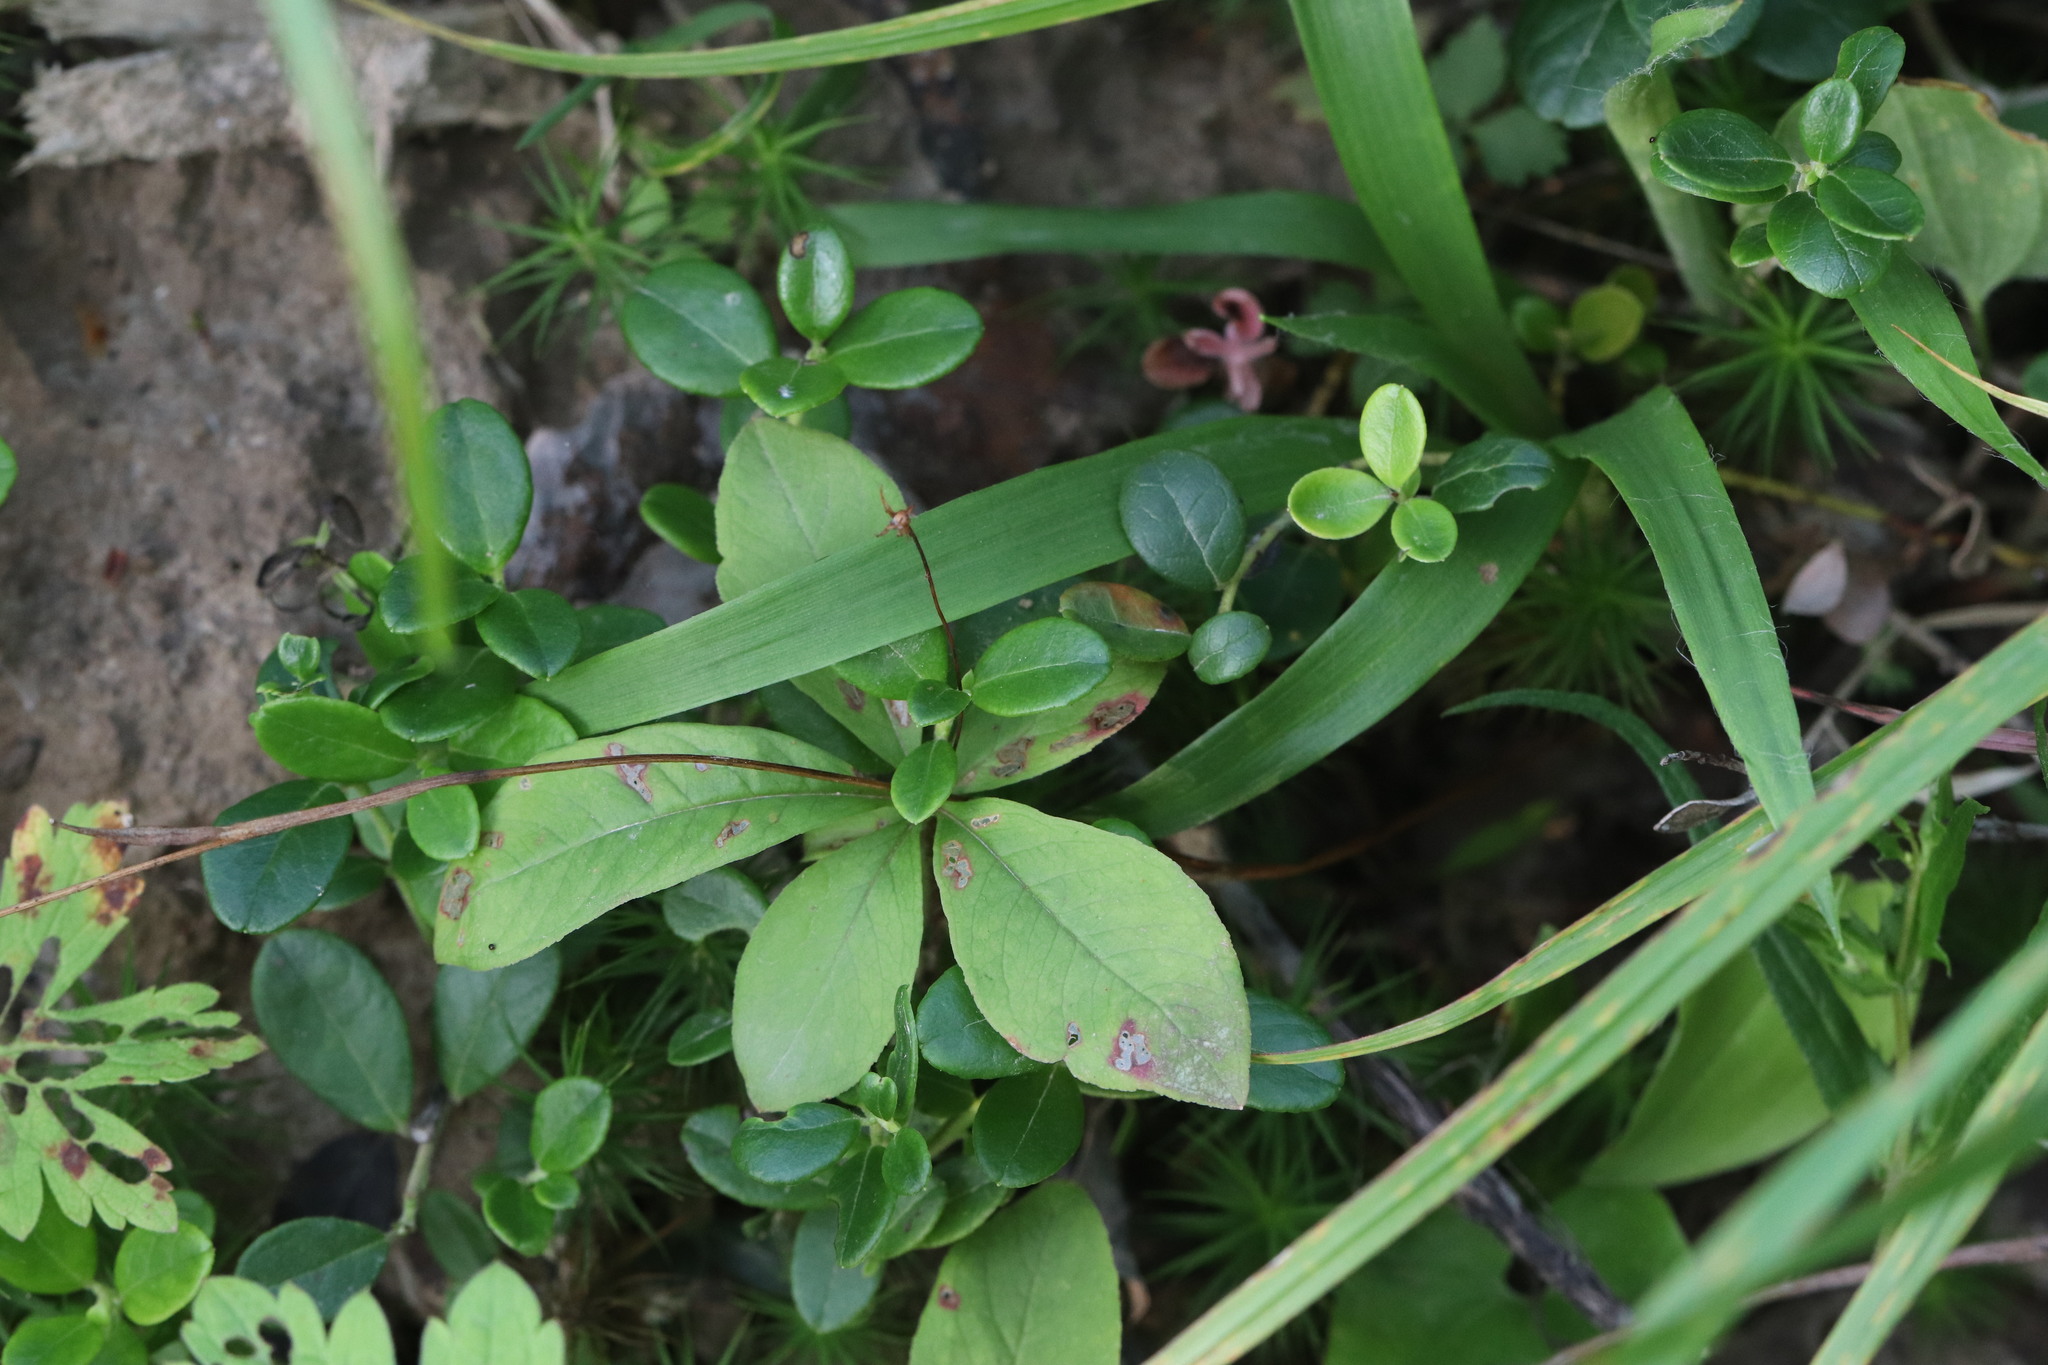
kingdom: Plantae
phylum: Tracheophyta
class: Magnoliopsida
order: Ericales
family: Primulaceae
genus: Lysimachia
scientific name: Lysimachia europaea
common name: Arctic starflower
